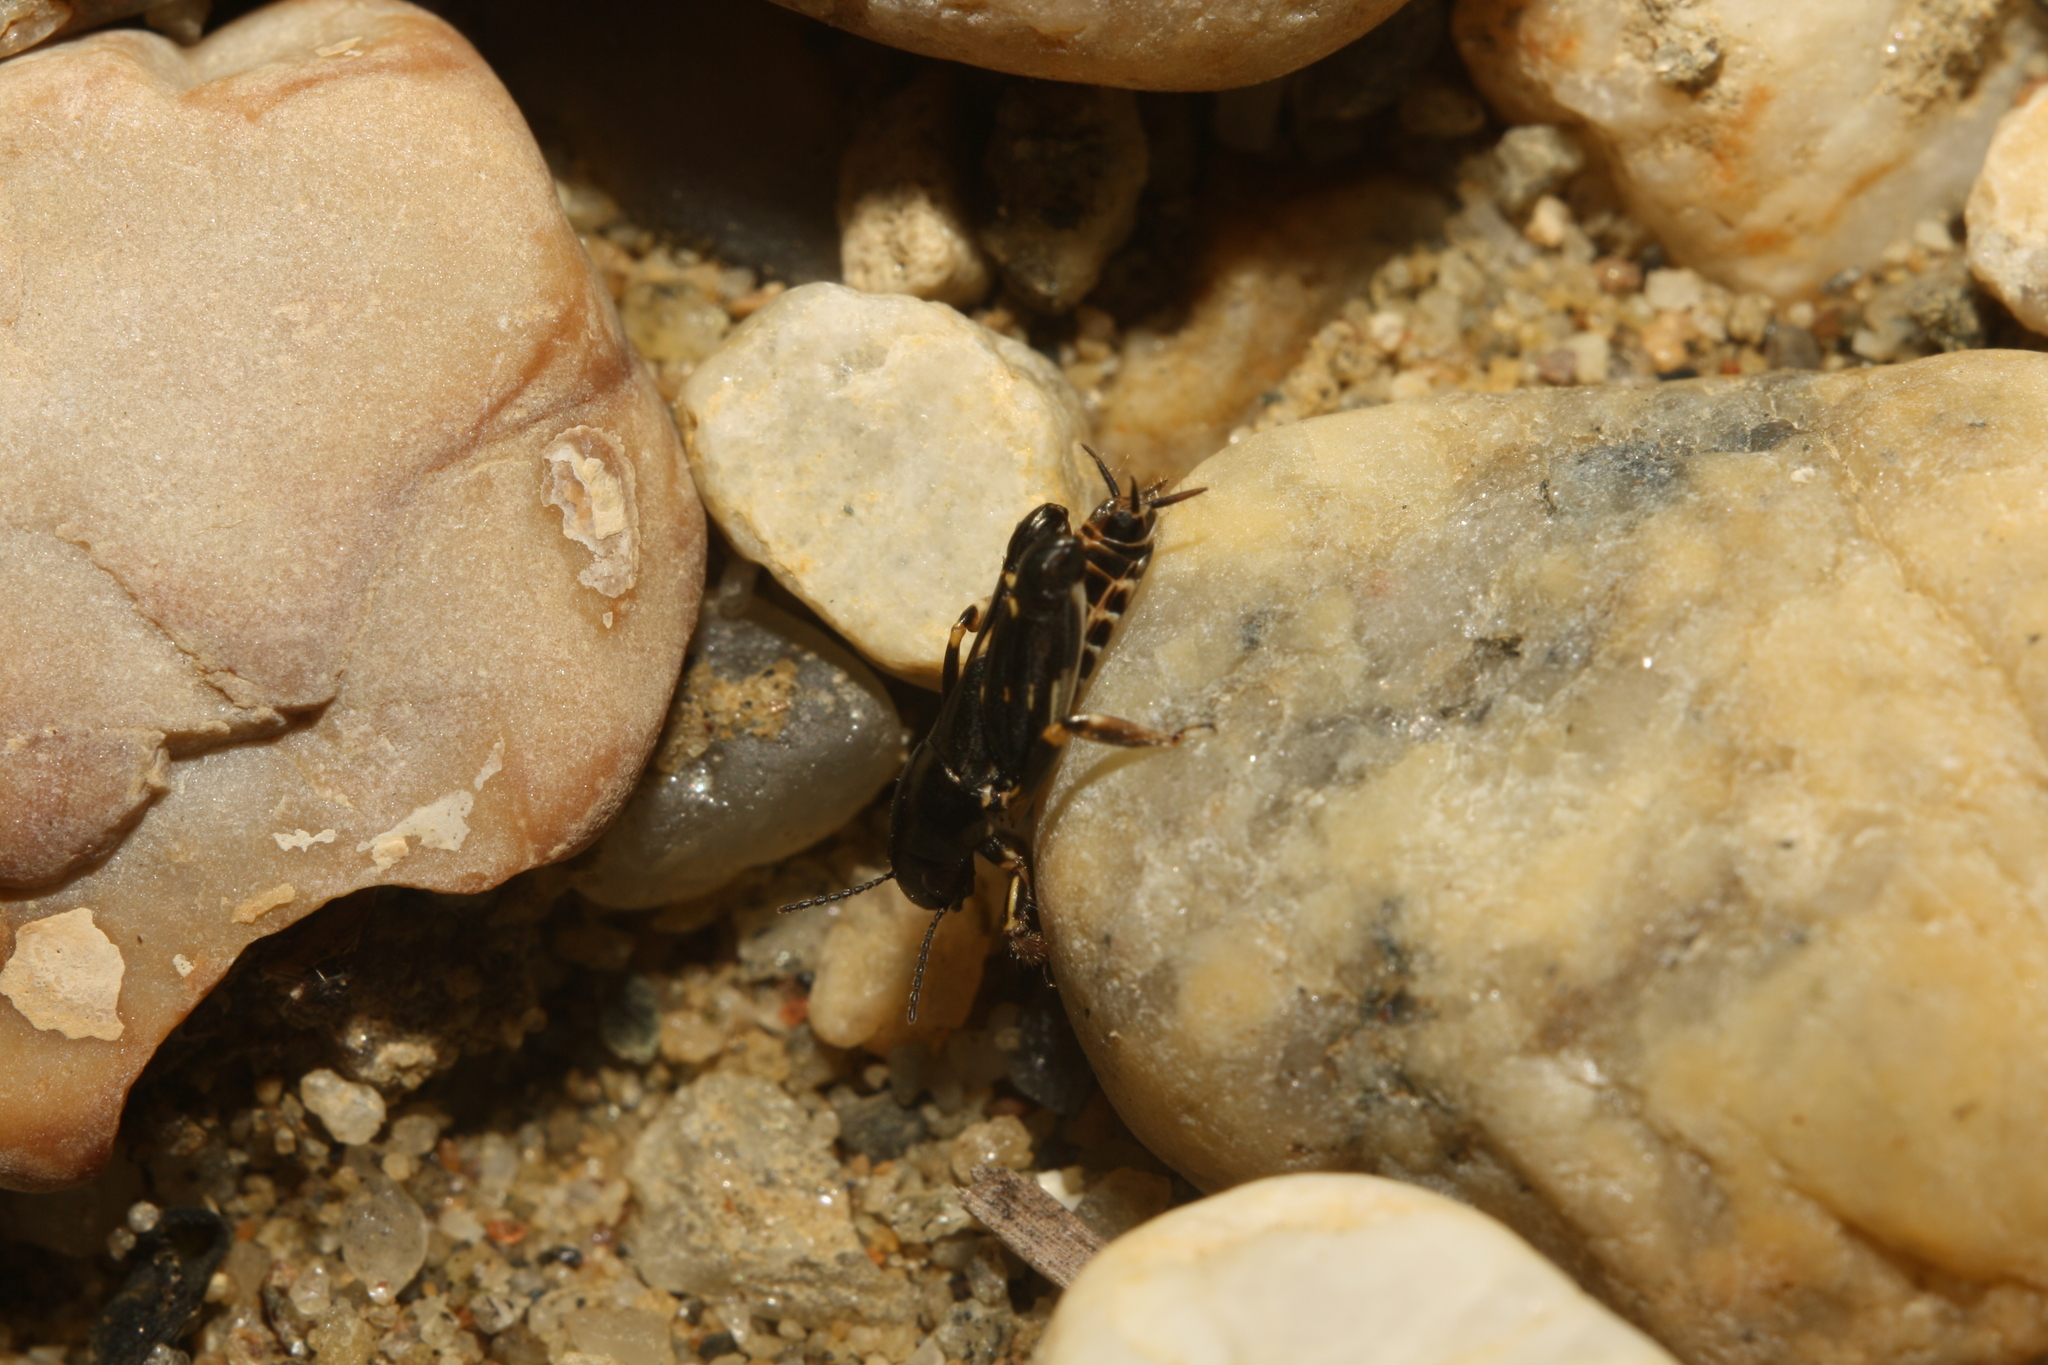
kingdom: Animalia
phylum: Arthropoda
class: Insecta
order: Orthoptera
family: Tridactylidae
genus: Xya
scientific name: Xya pfaendleri
